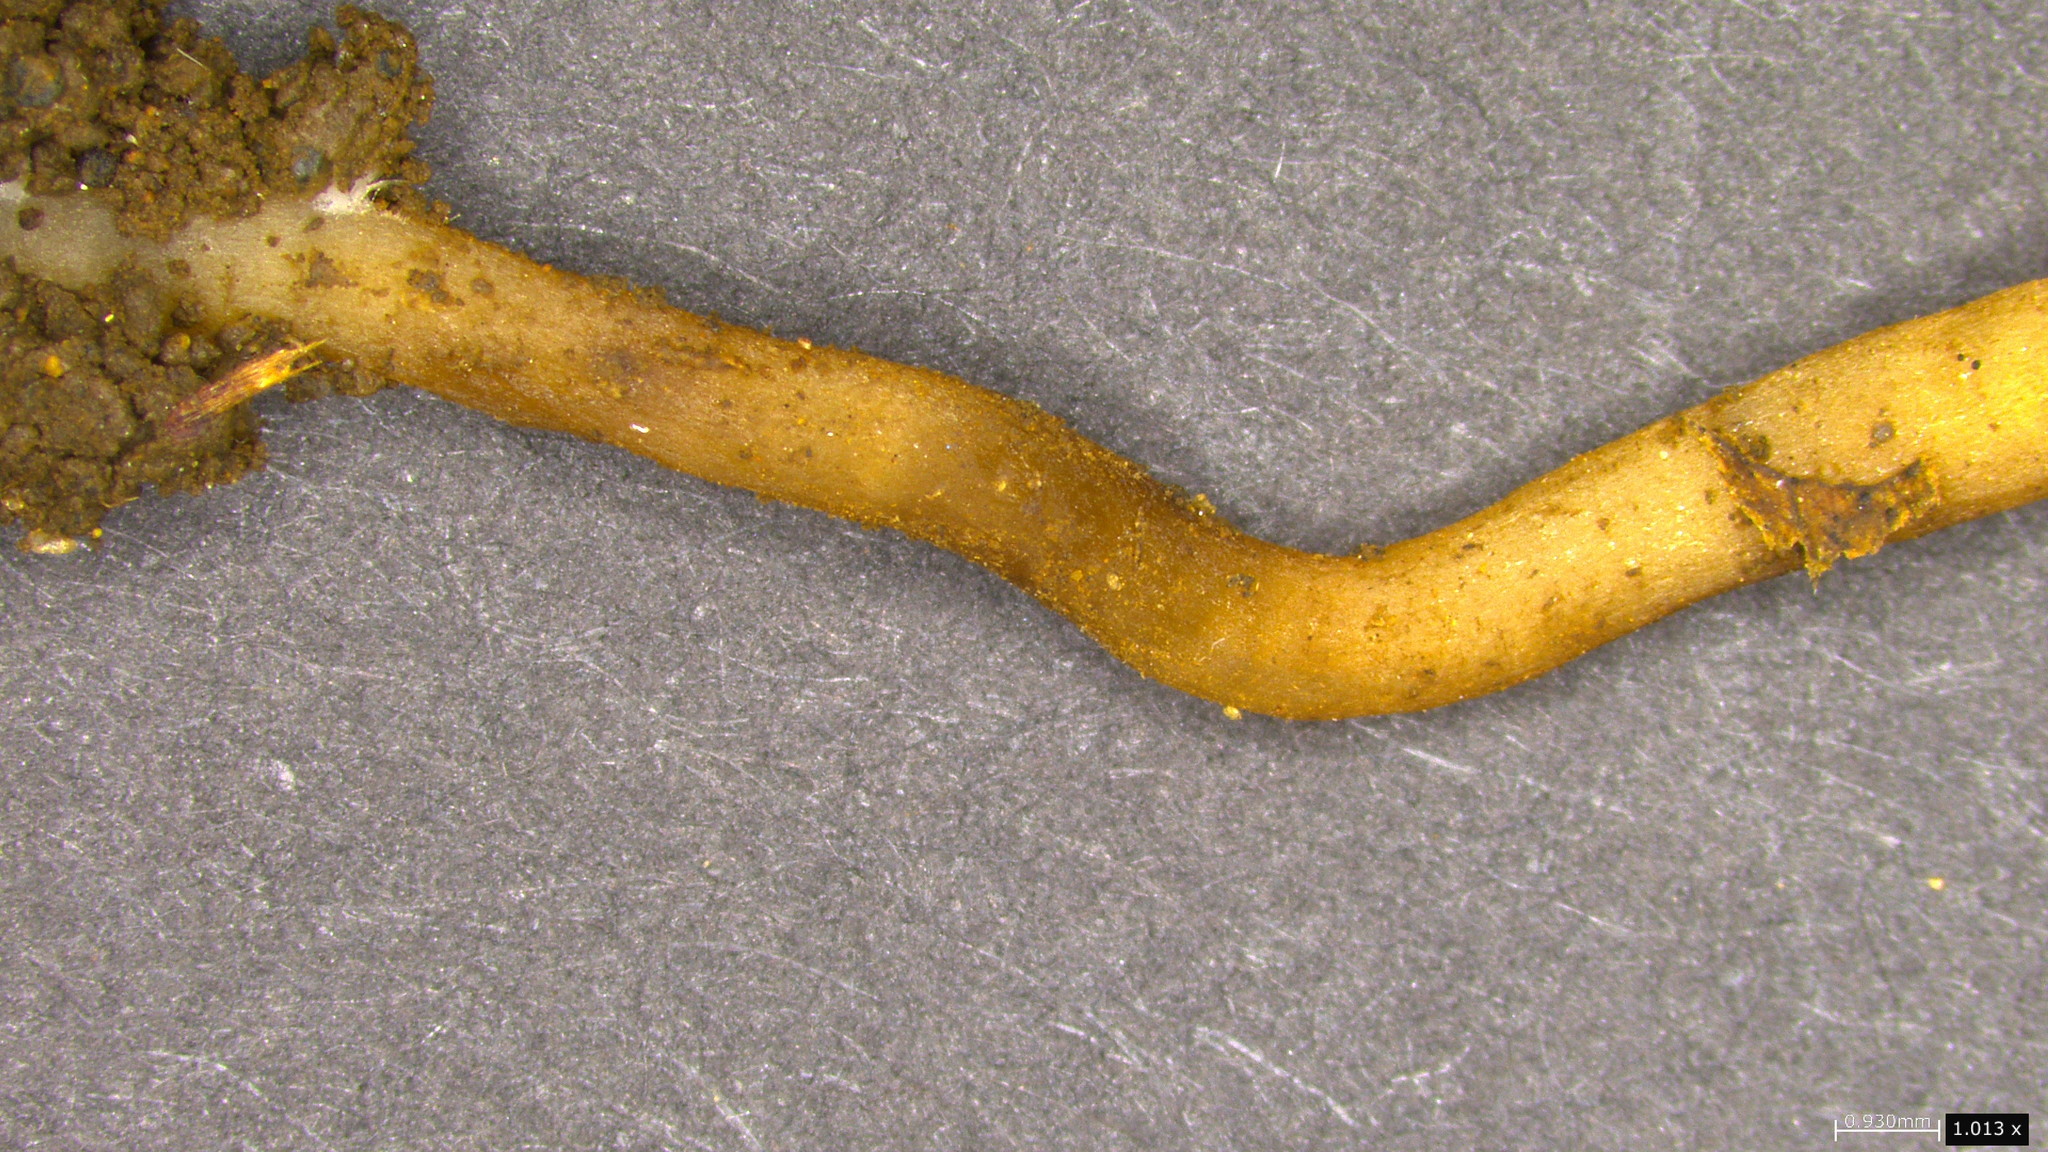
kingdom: Fungi
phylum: Ascomycota
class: Leotiomycetes
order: Helotiales
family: Sclerotiniaceae
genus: Ciboria
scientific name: Ciboria shiraiana
